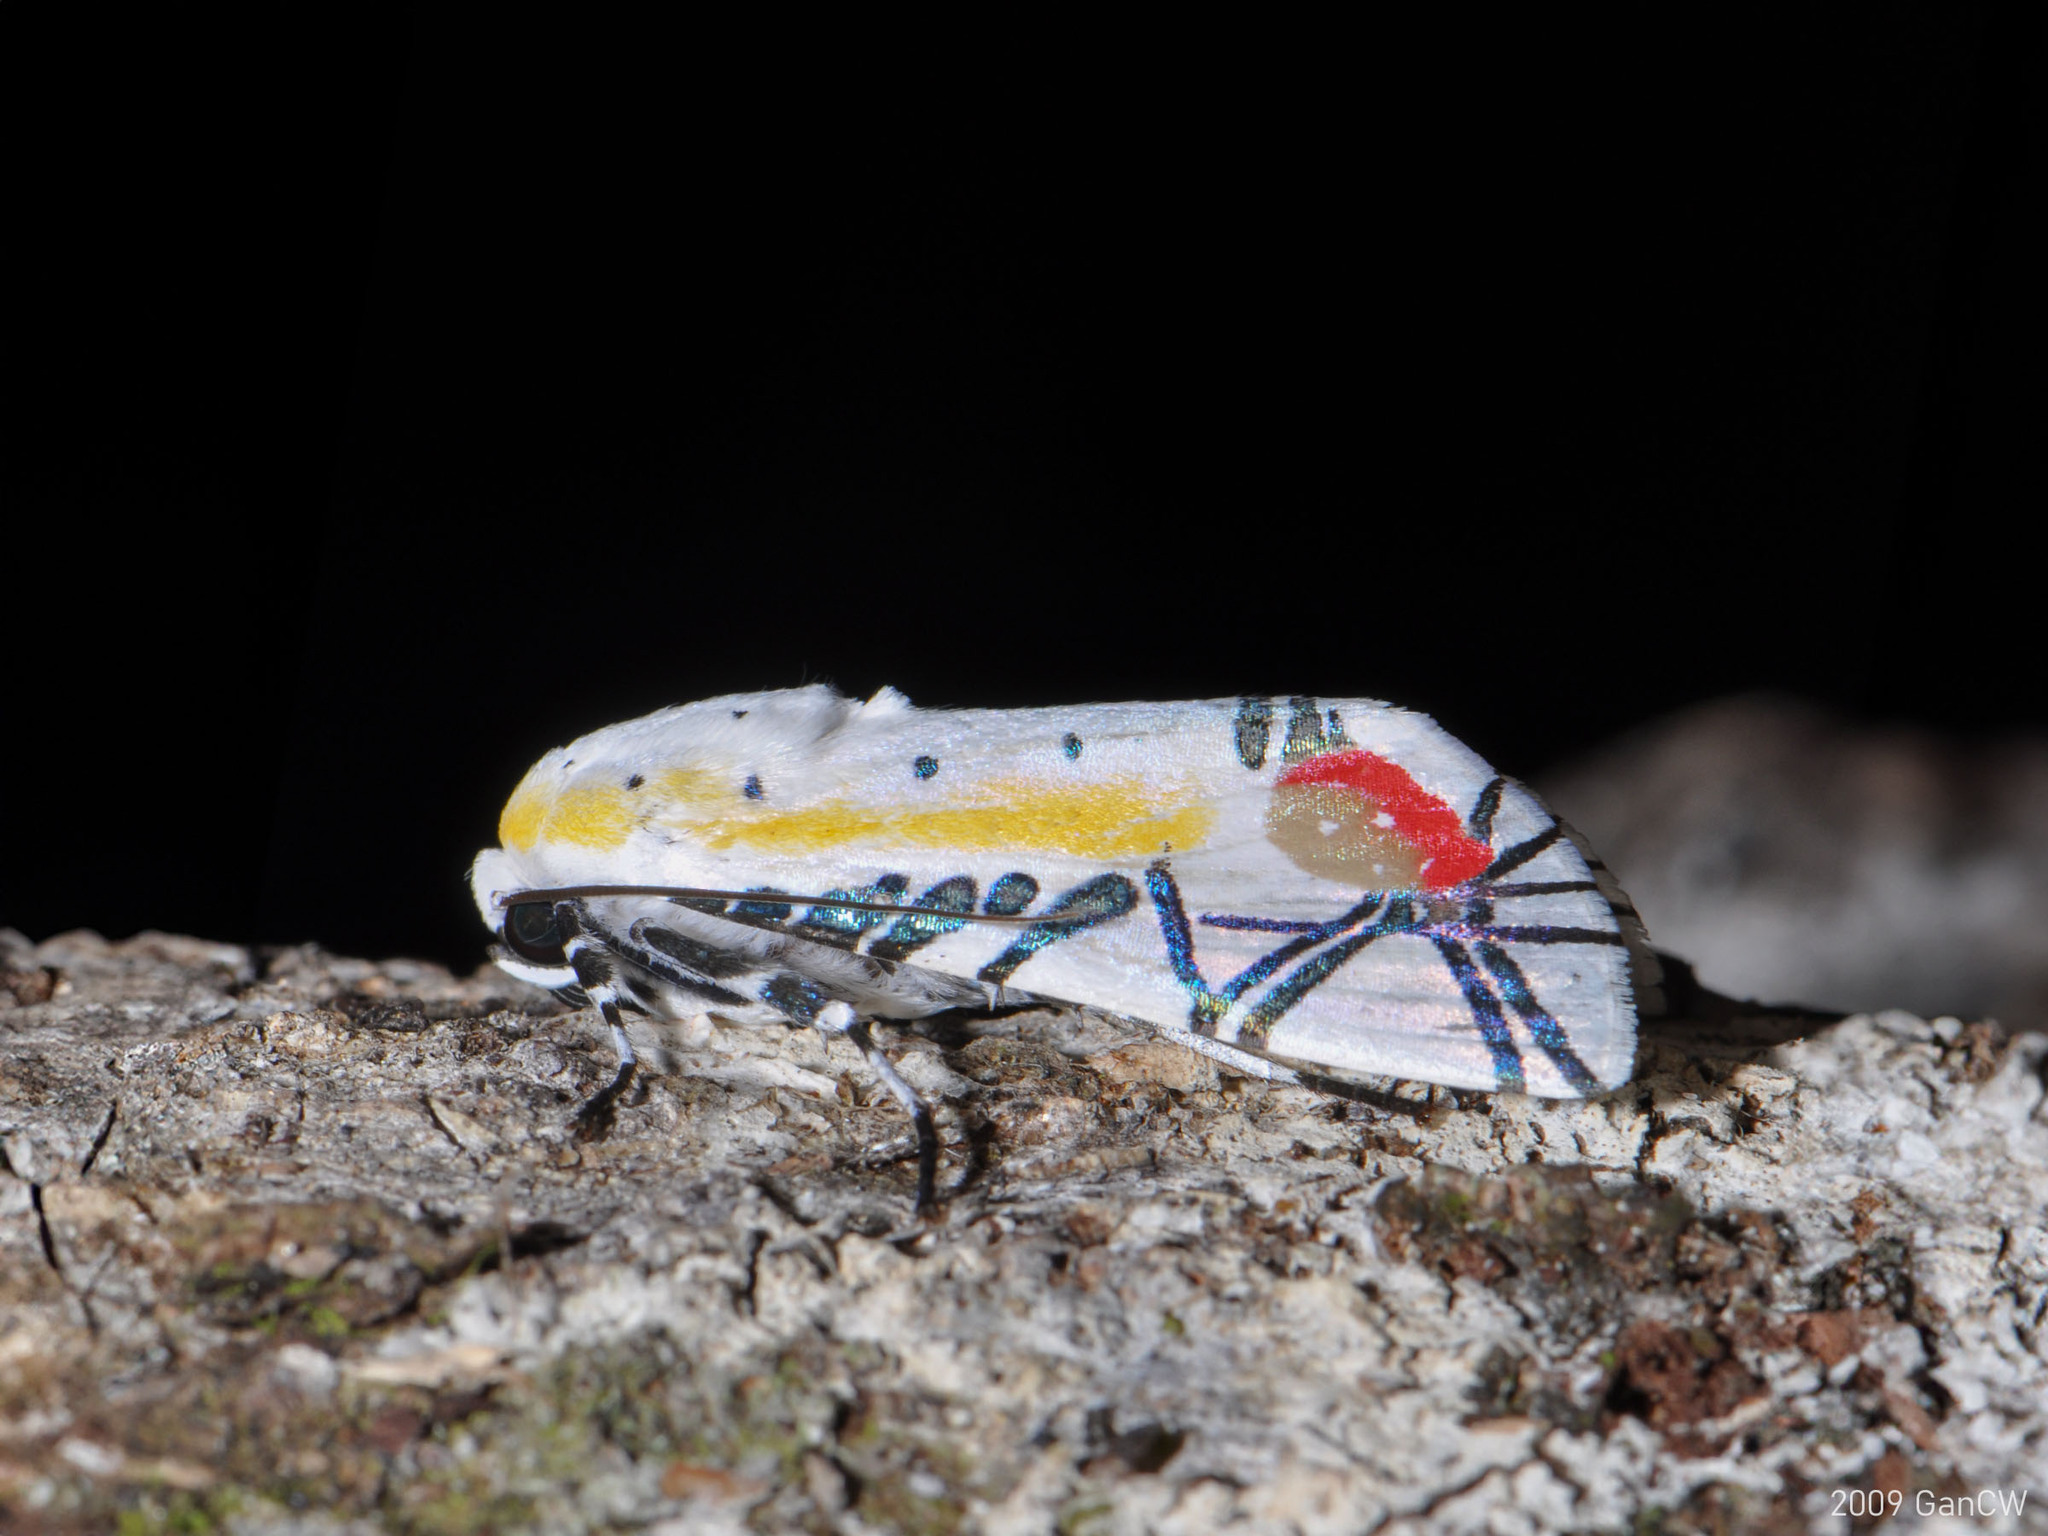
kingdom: Animalia
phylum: Arthropoda
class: Insecta
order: Lepidoptera
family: Erebidae
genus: Baorisa
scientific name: Baorisa hieroglyphica
